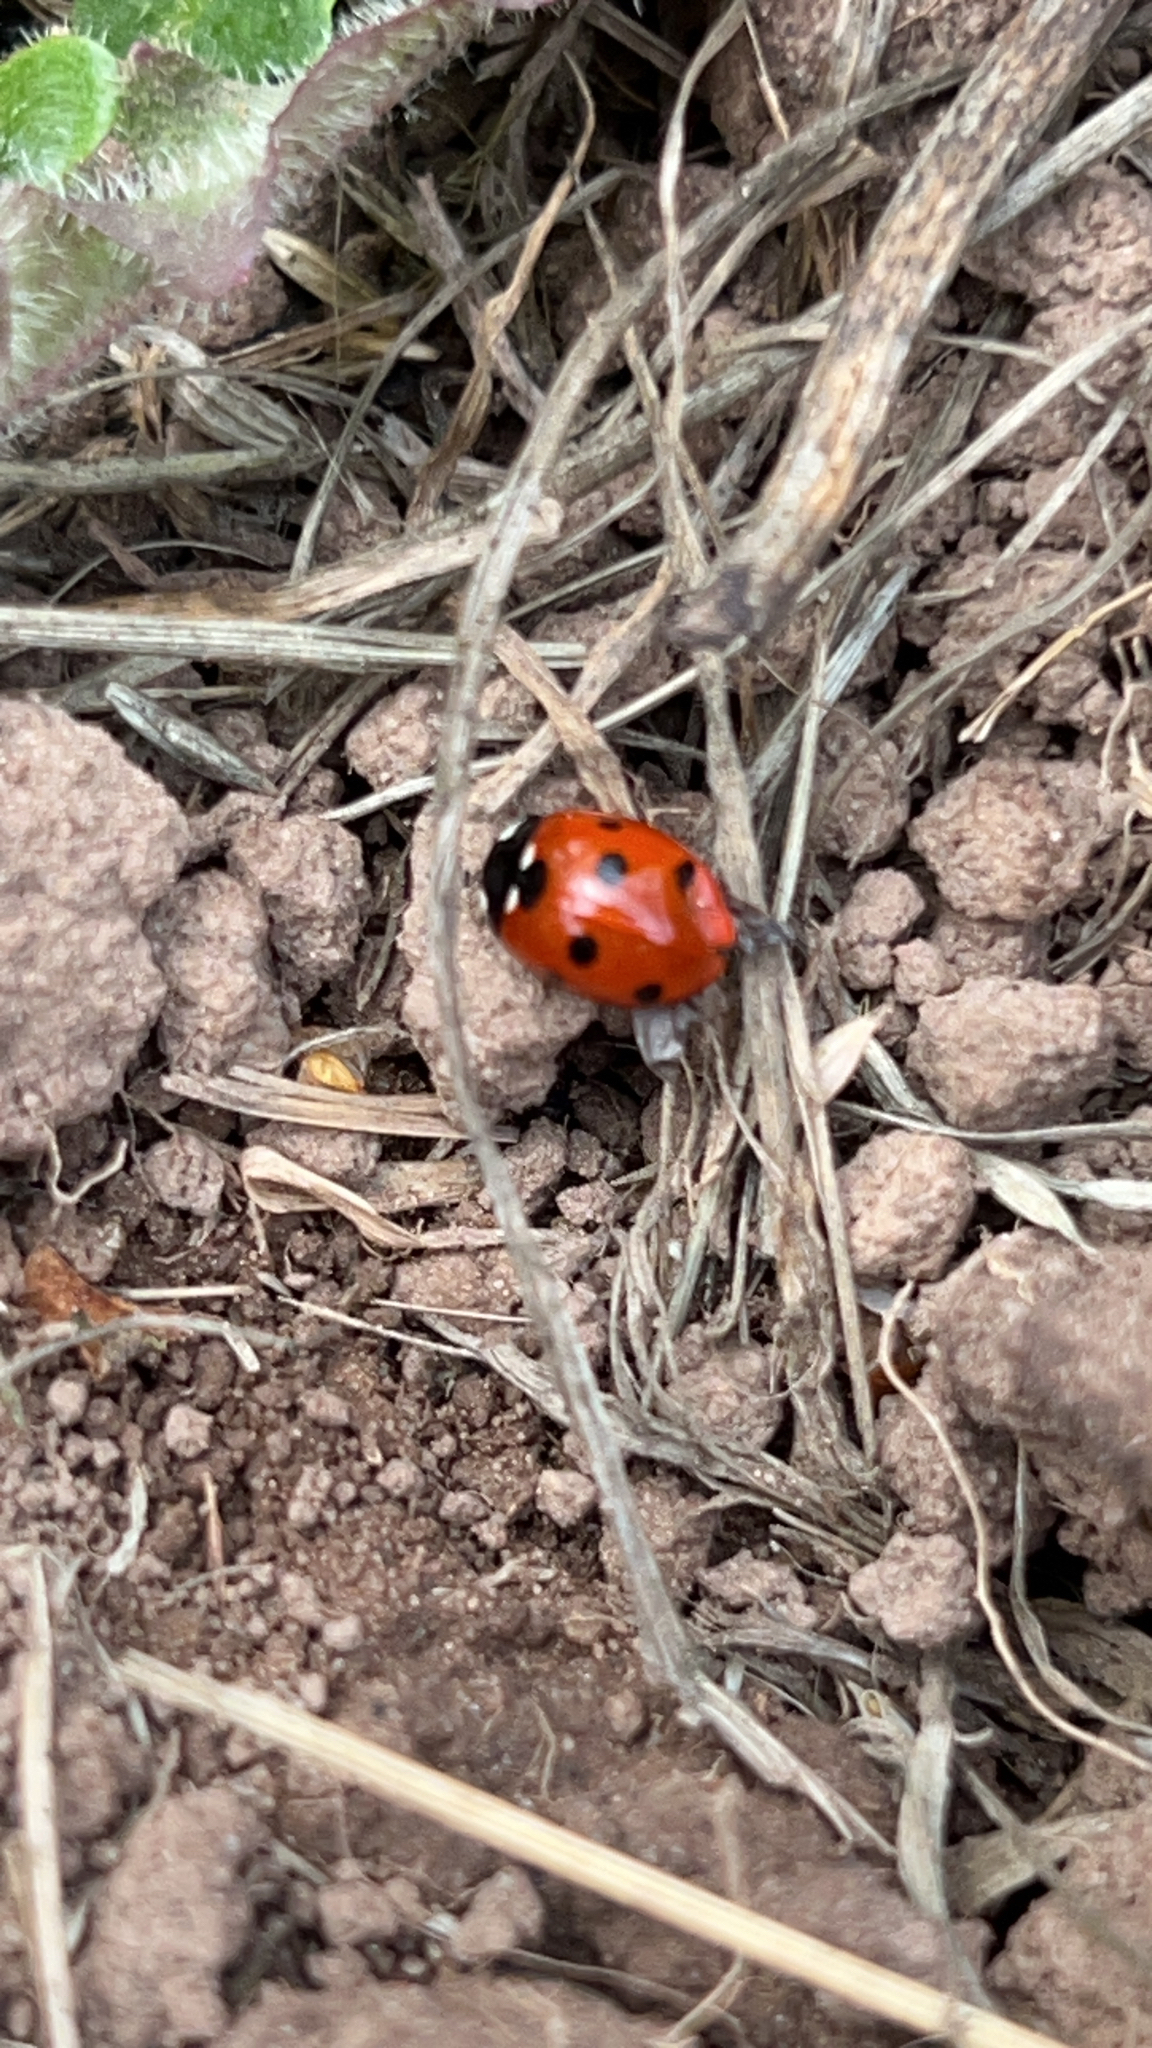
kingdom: Animalia
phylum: Arthropoda
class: Insecta
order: Coleoptera
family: Coccinellidae
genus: Coccinella
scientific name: Coccinella septempunctata
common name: Sevenspotted lady beetle
